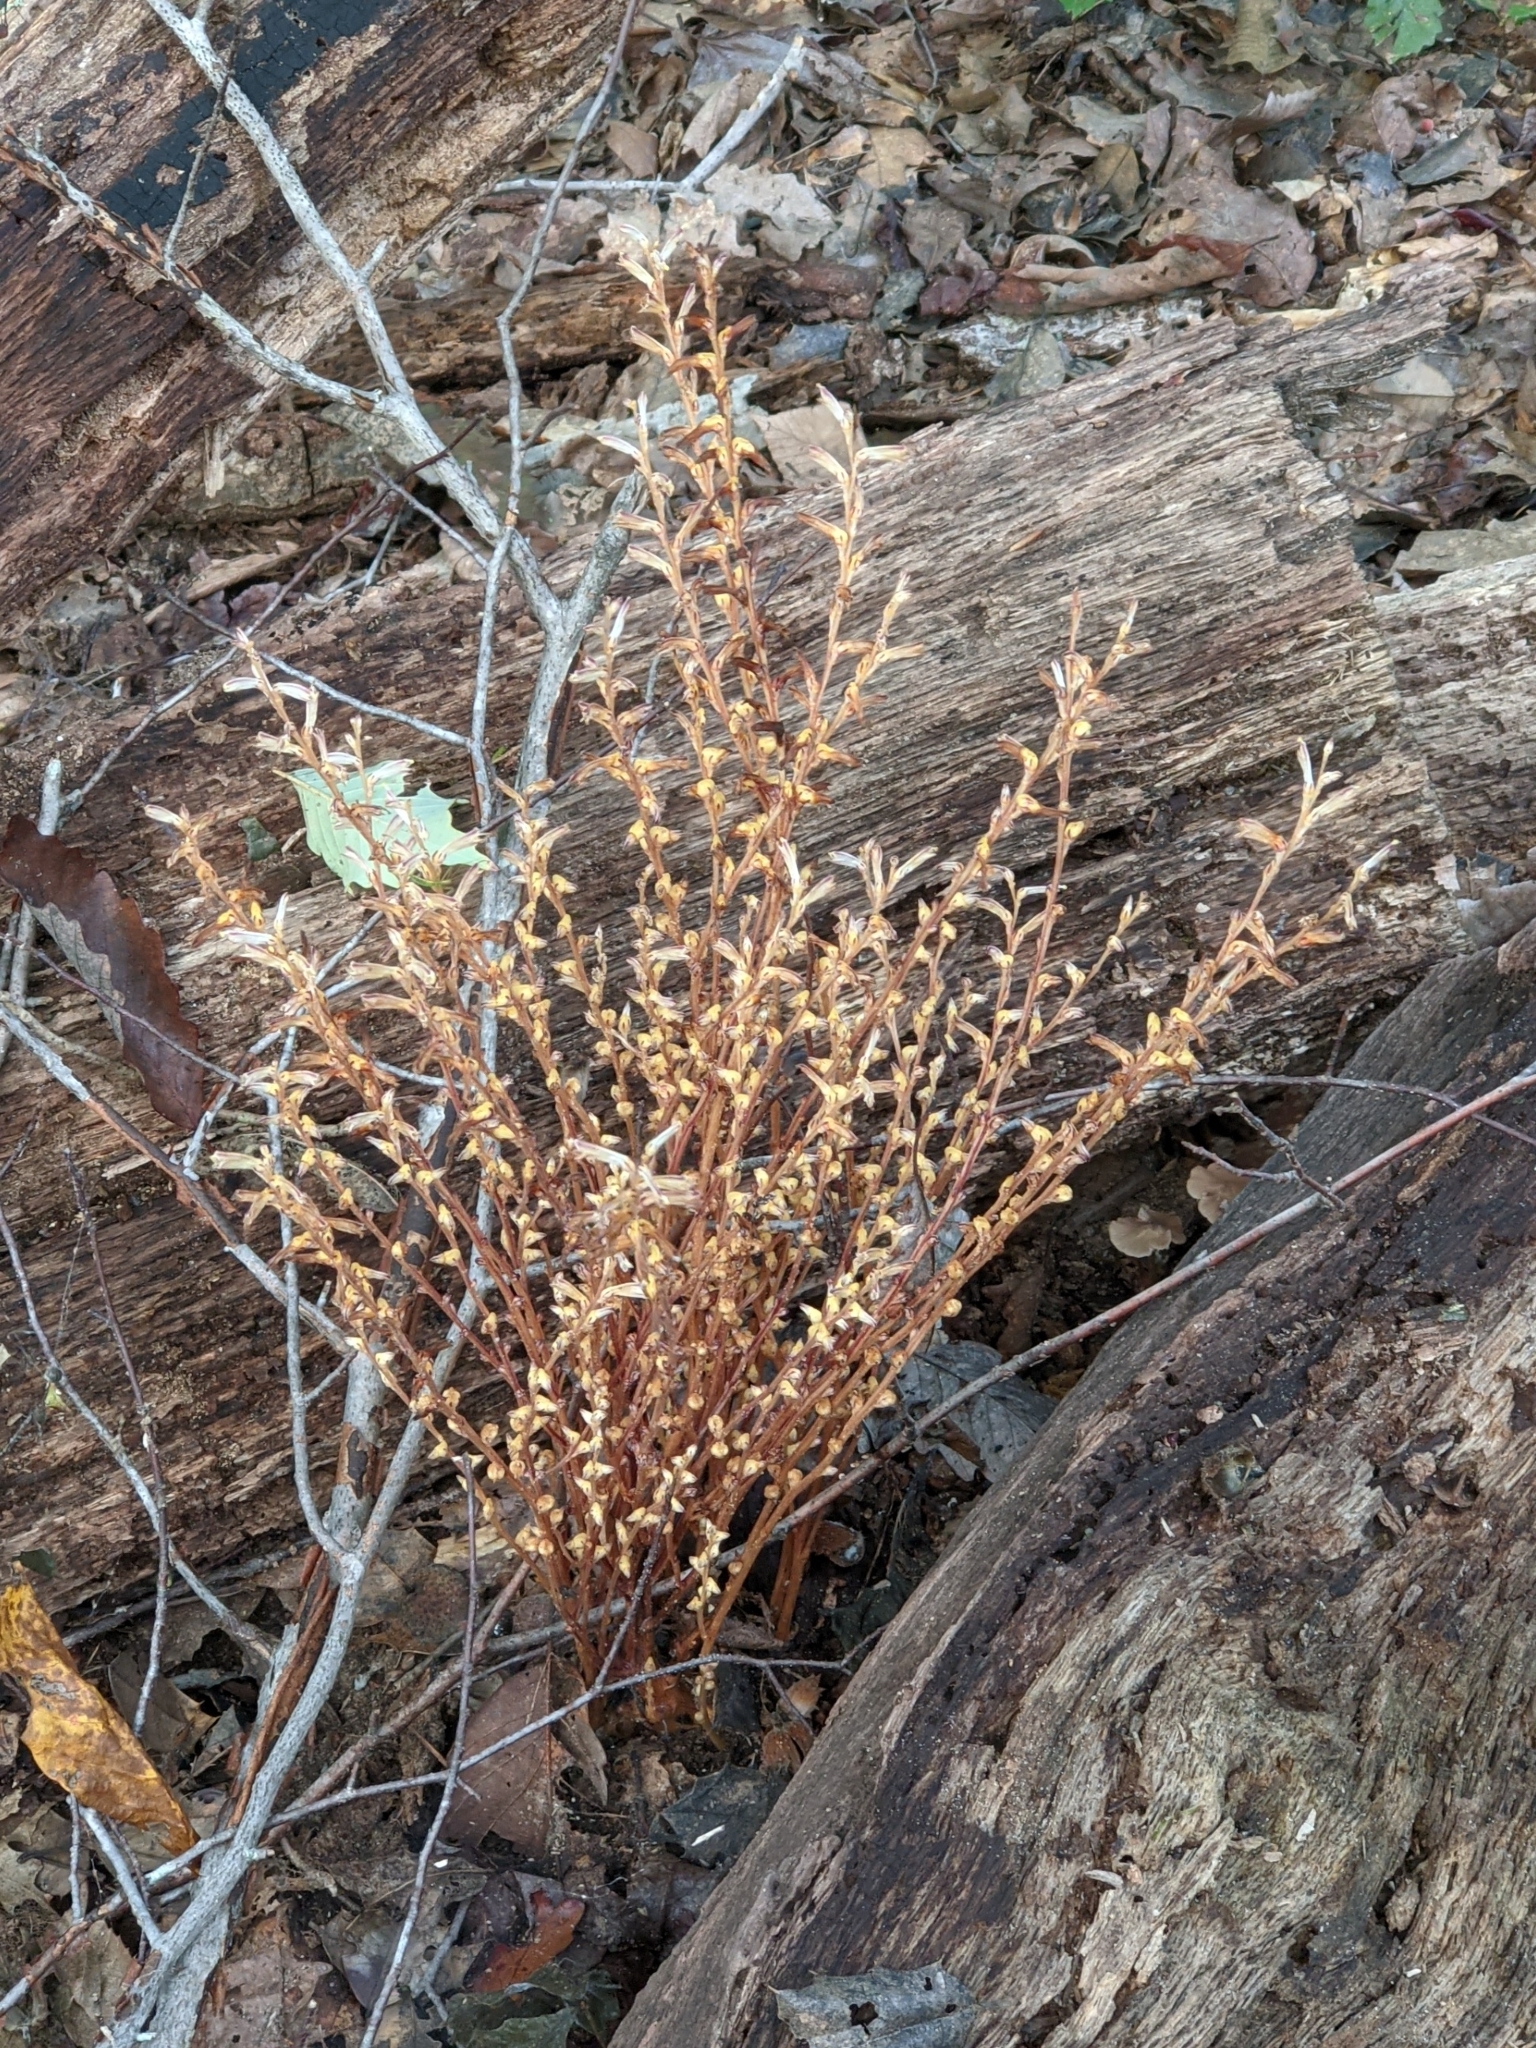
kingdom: Plantae
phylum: Tracheophyta
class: Magnoliopsida
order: Lamiales
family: Orobanchaceae
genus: Epifagus
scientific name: Epifagus virginiana
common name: Beechdrops
